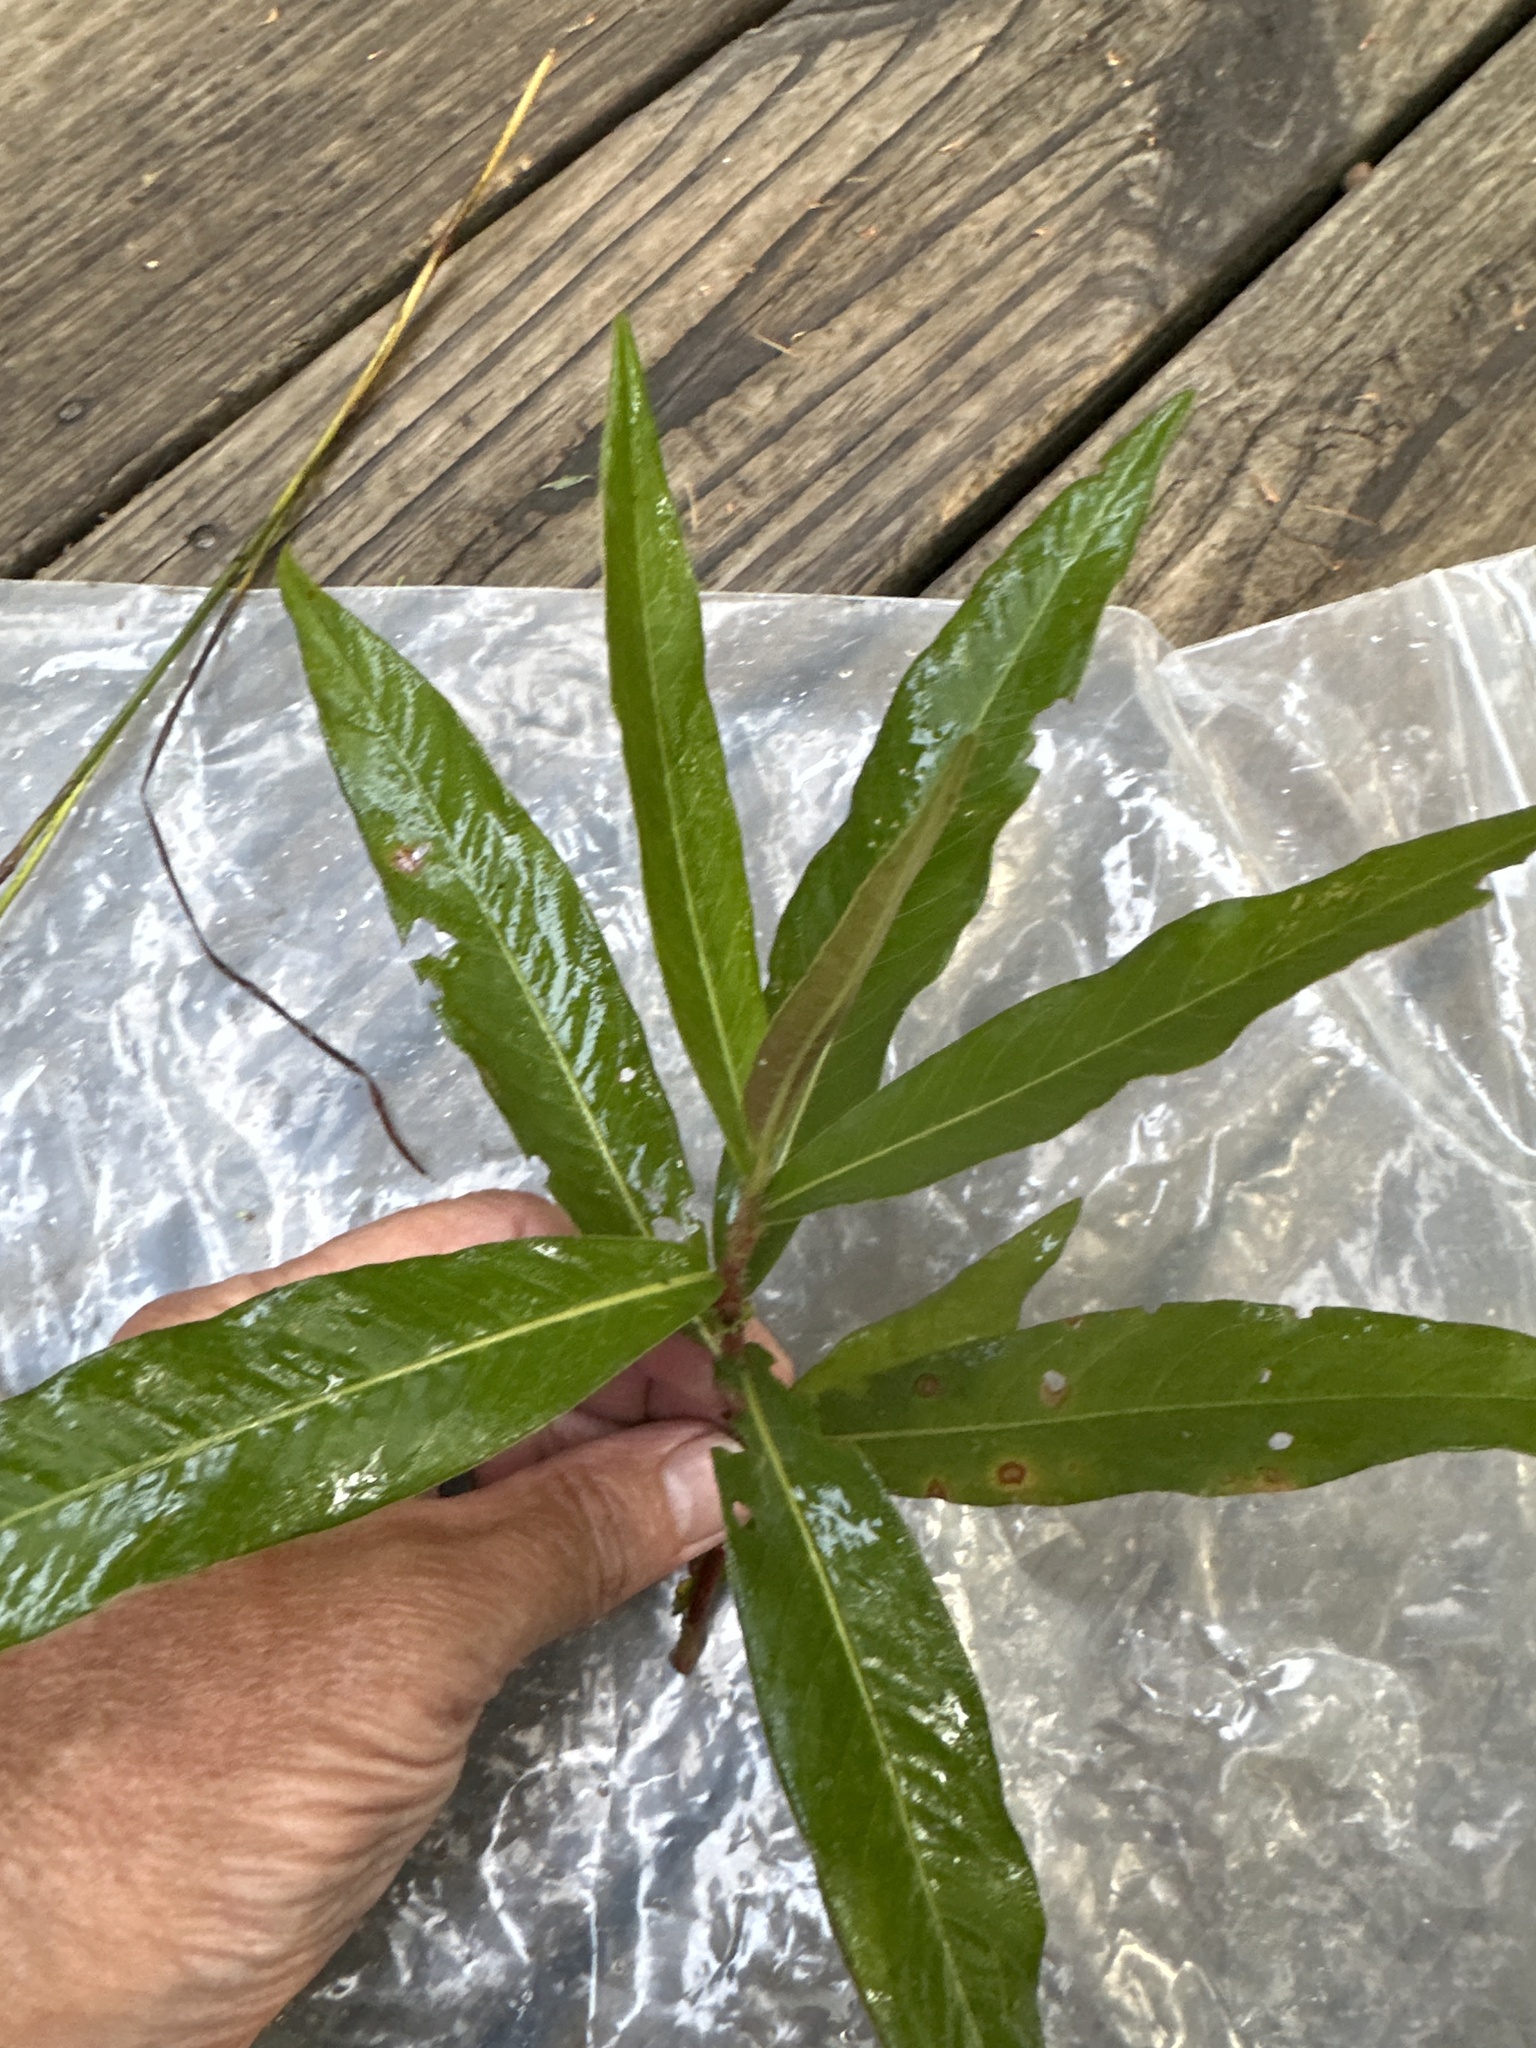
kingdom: Plantae
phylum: Tracheophyta
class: Magnoliopsida
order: Caryophyllales
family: Polygonaceae
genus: Persicaria
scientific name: Persicaria amphibia
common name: Amphibious bistort
